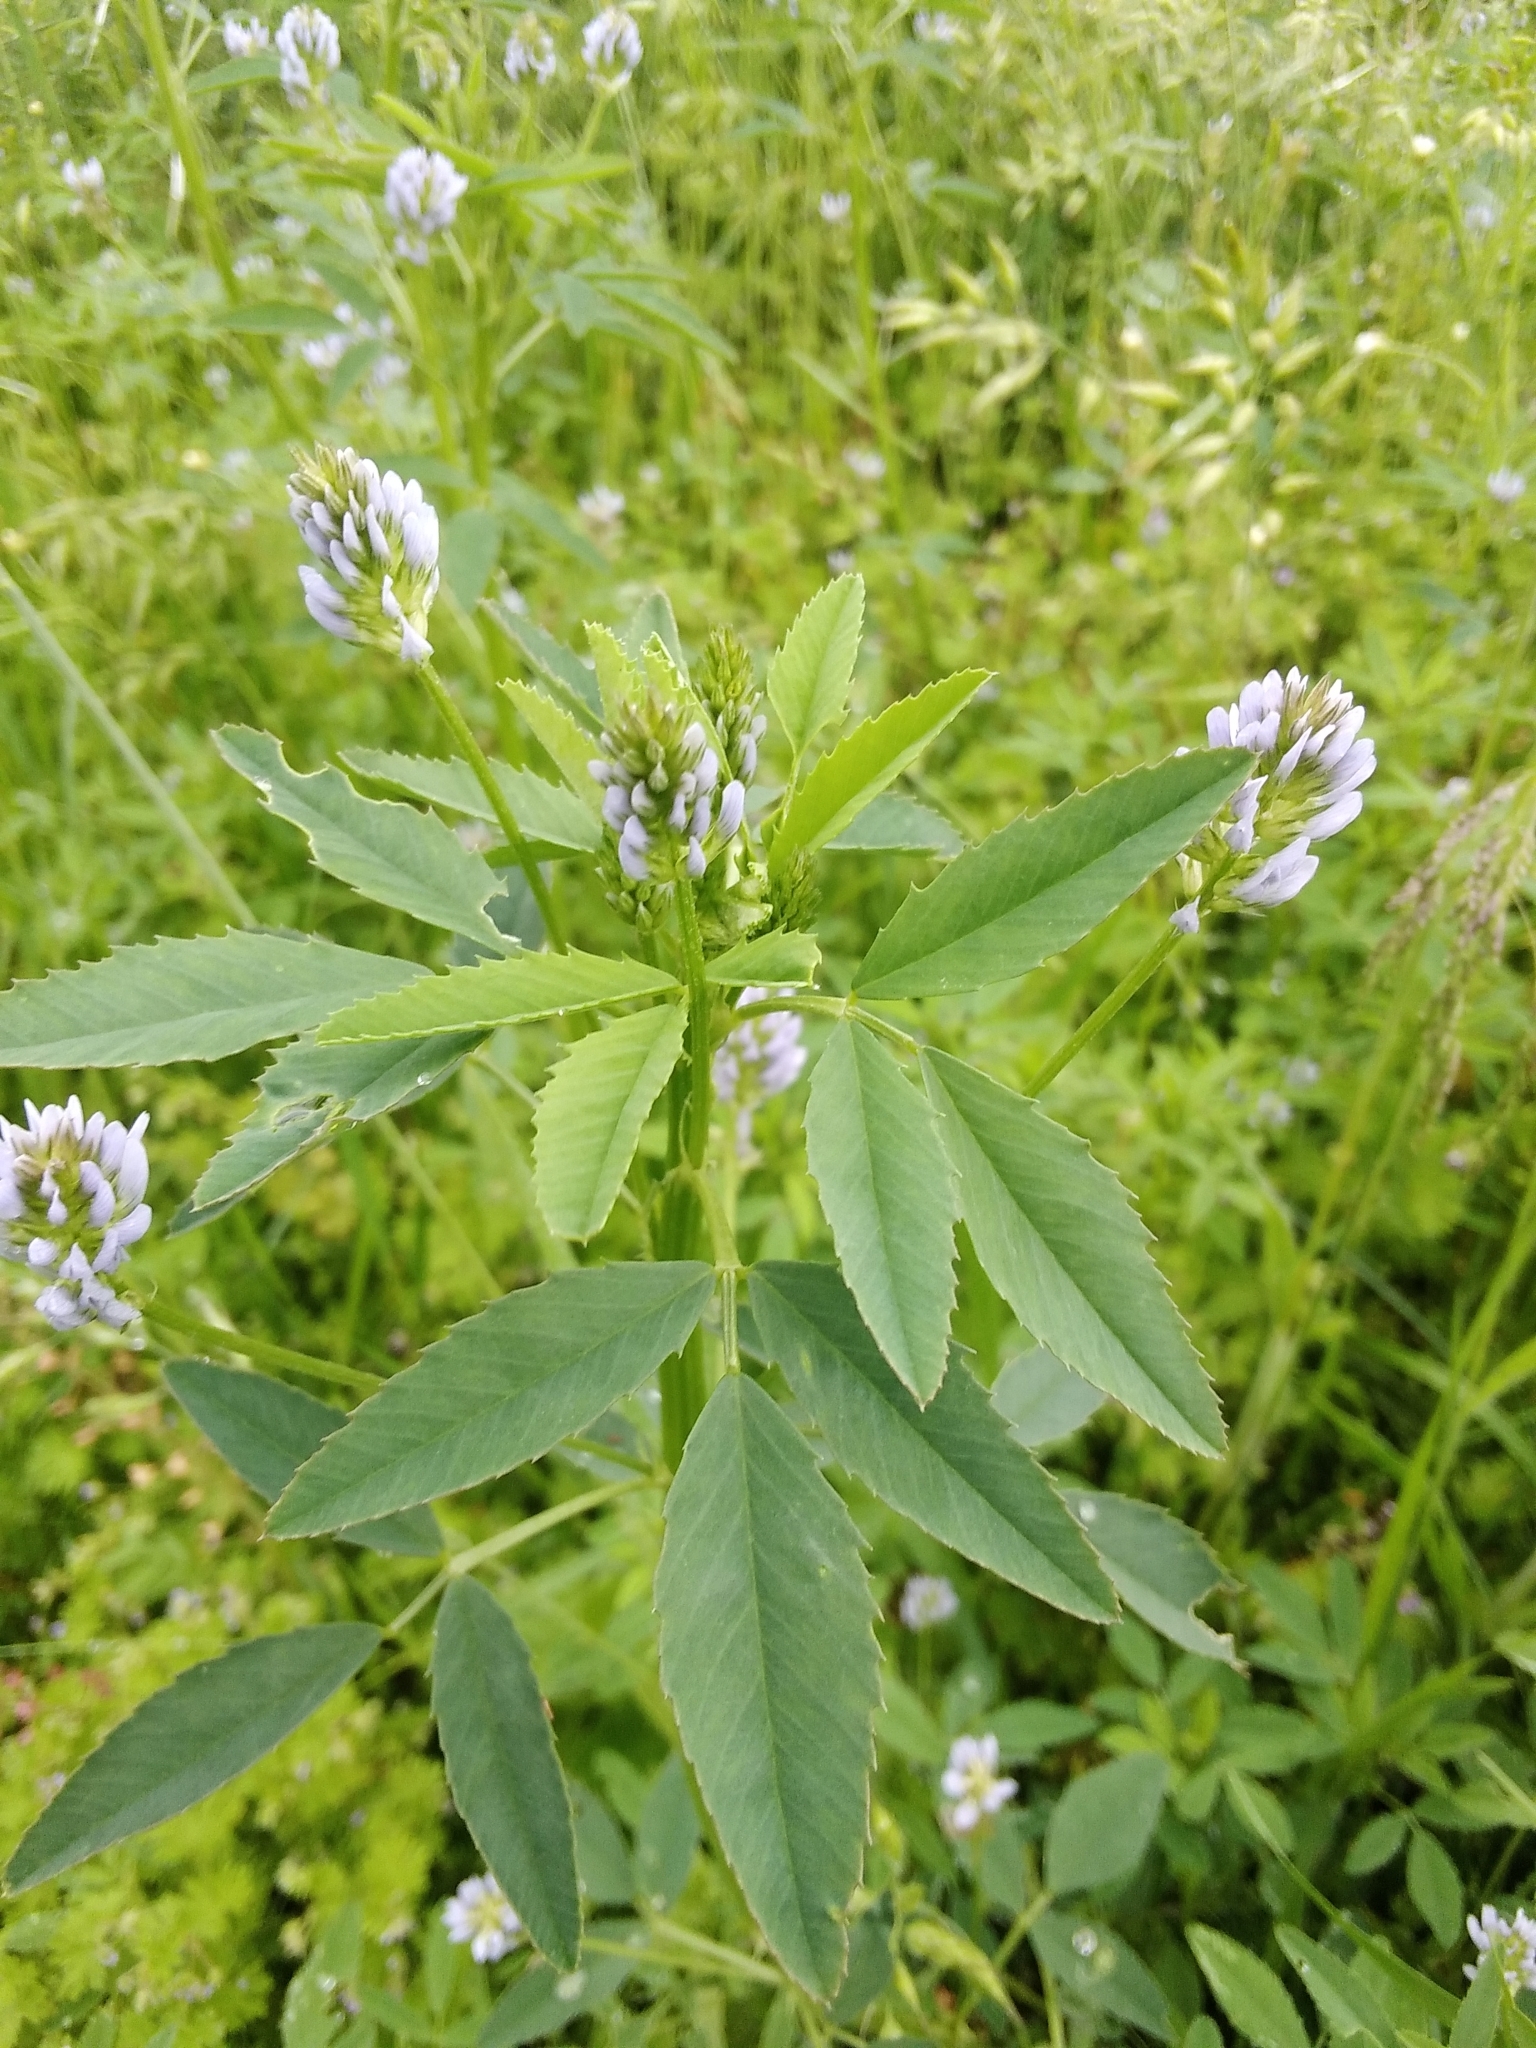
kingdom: Plantae
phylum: Tracheophyta
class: Magnoliopsida
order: Fabales
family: Fabaceae
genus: Trigonella
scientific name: Trigonella procumbens
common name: Trailing fenugreek
